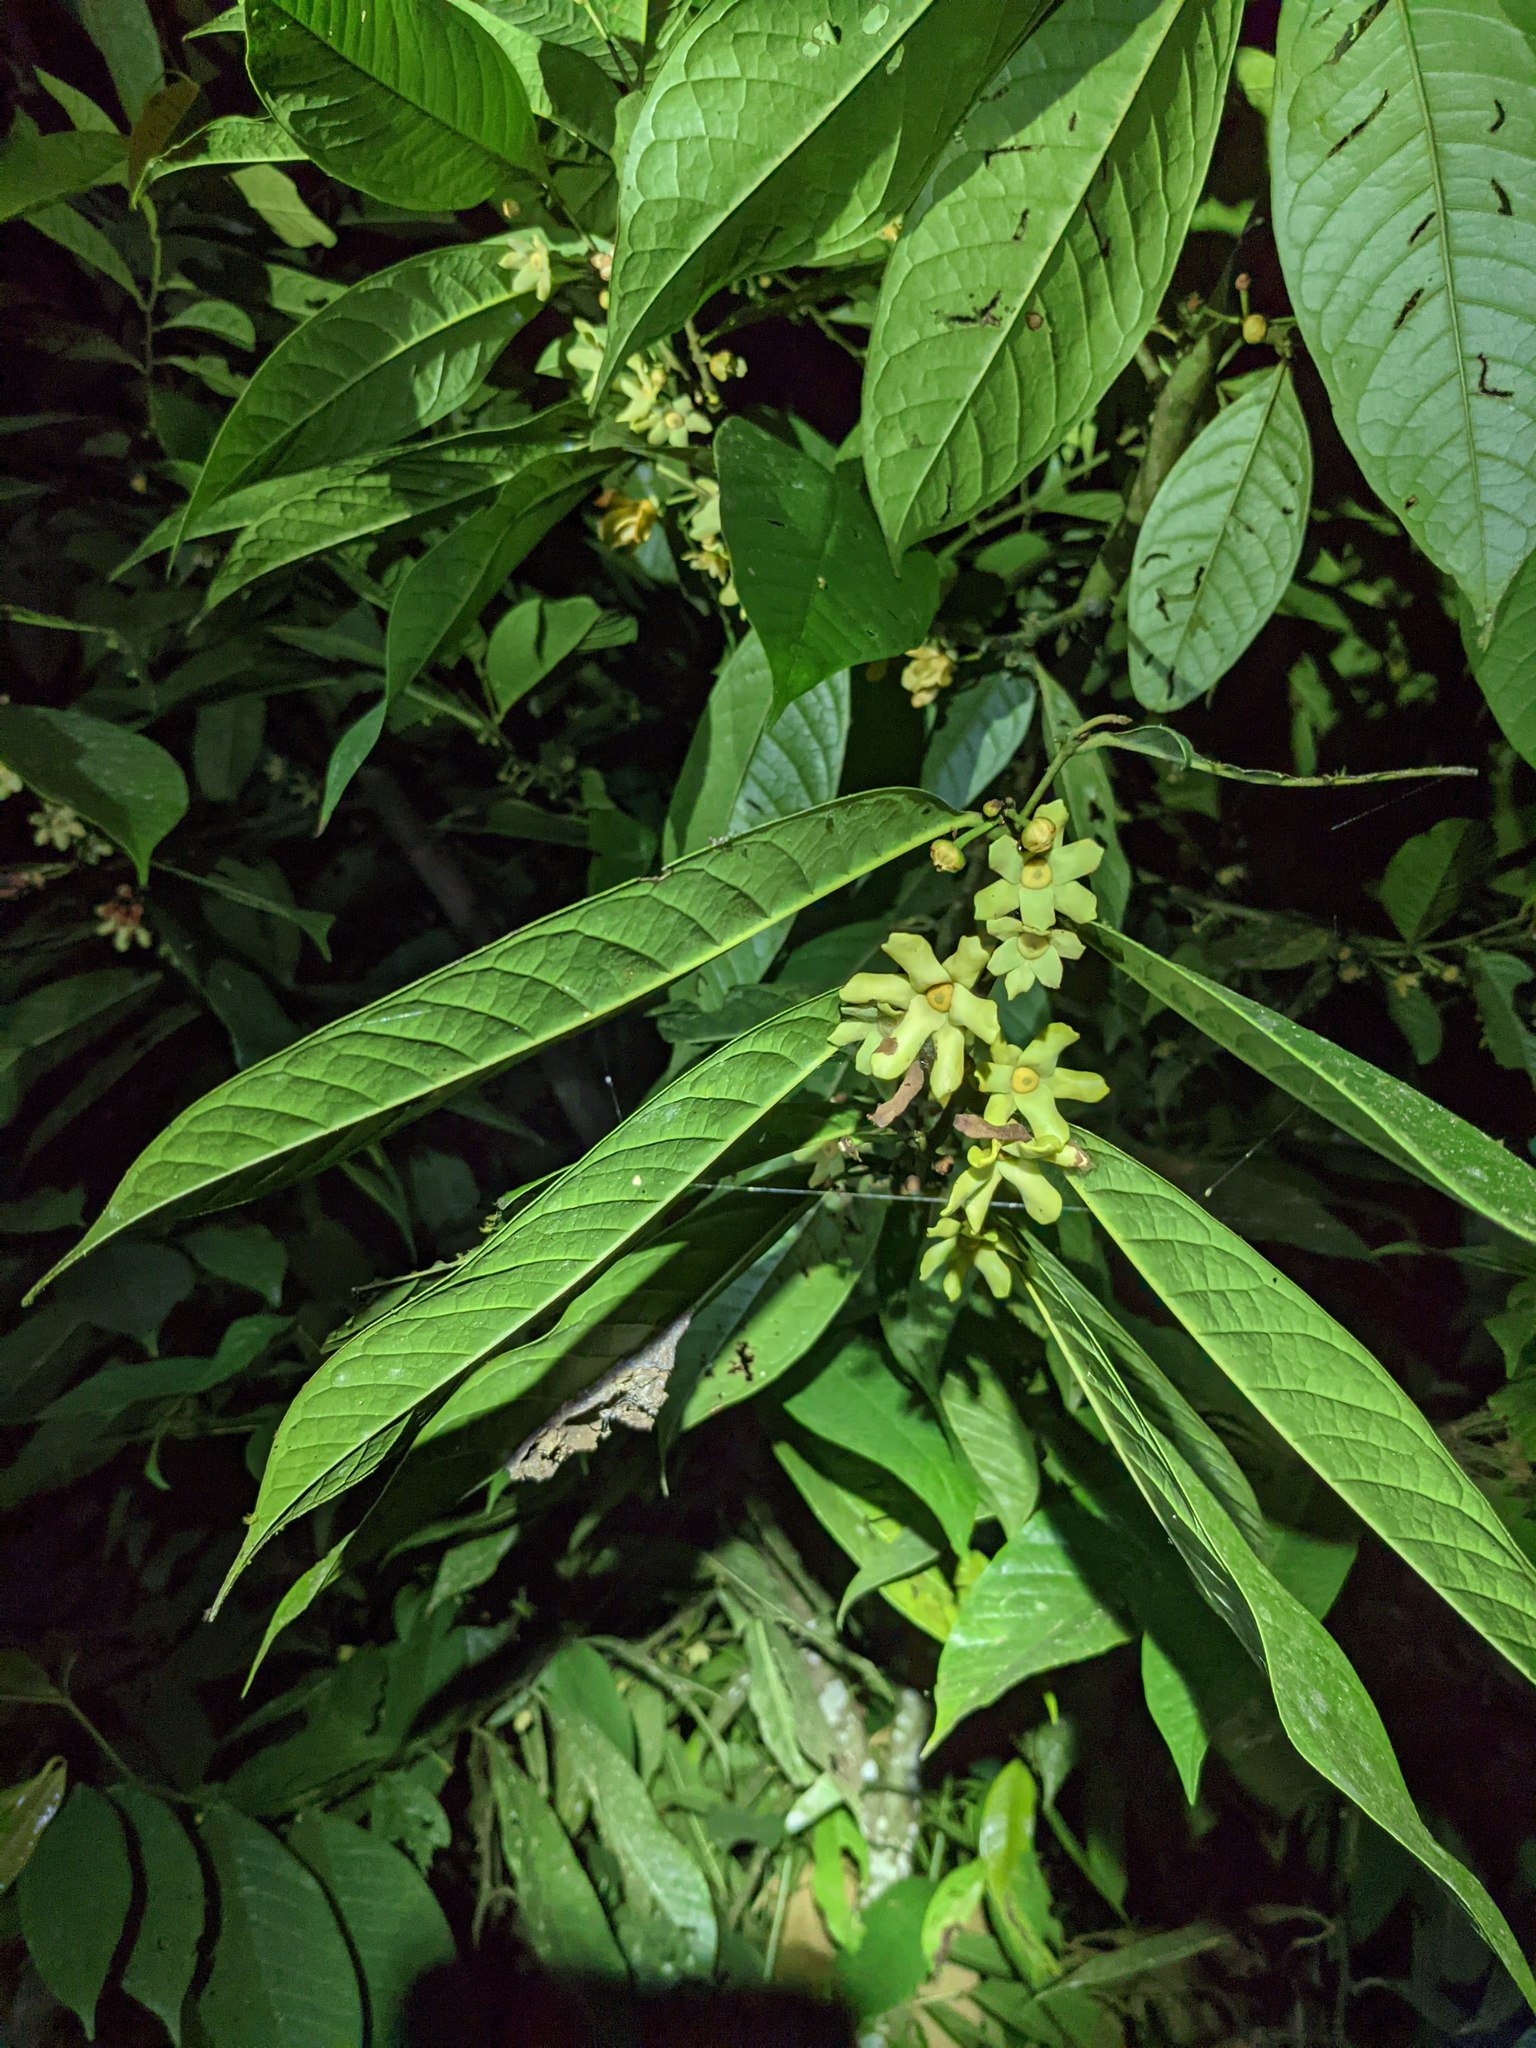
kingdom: Plantae
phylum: Tracheophyta
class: Magnoliopsida
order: Magnoliales
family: Annonaceae
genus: Guatteria
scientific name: Guatteria amplifolia
